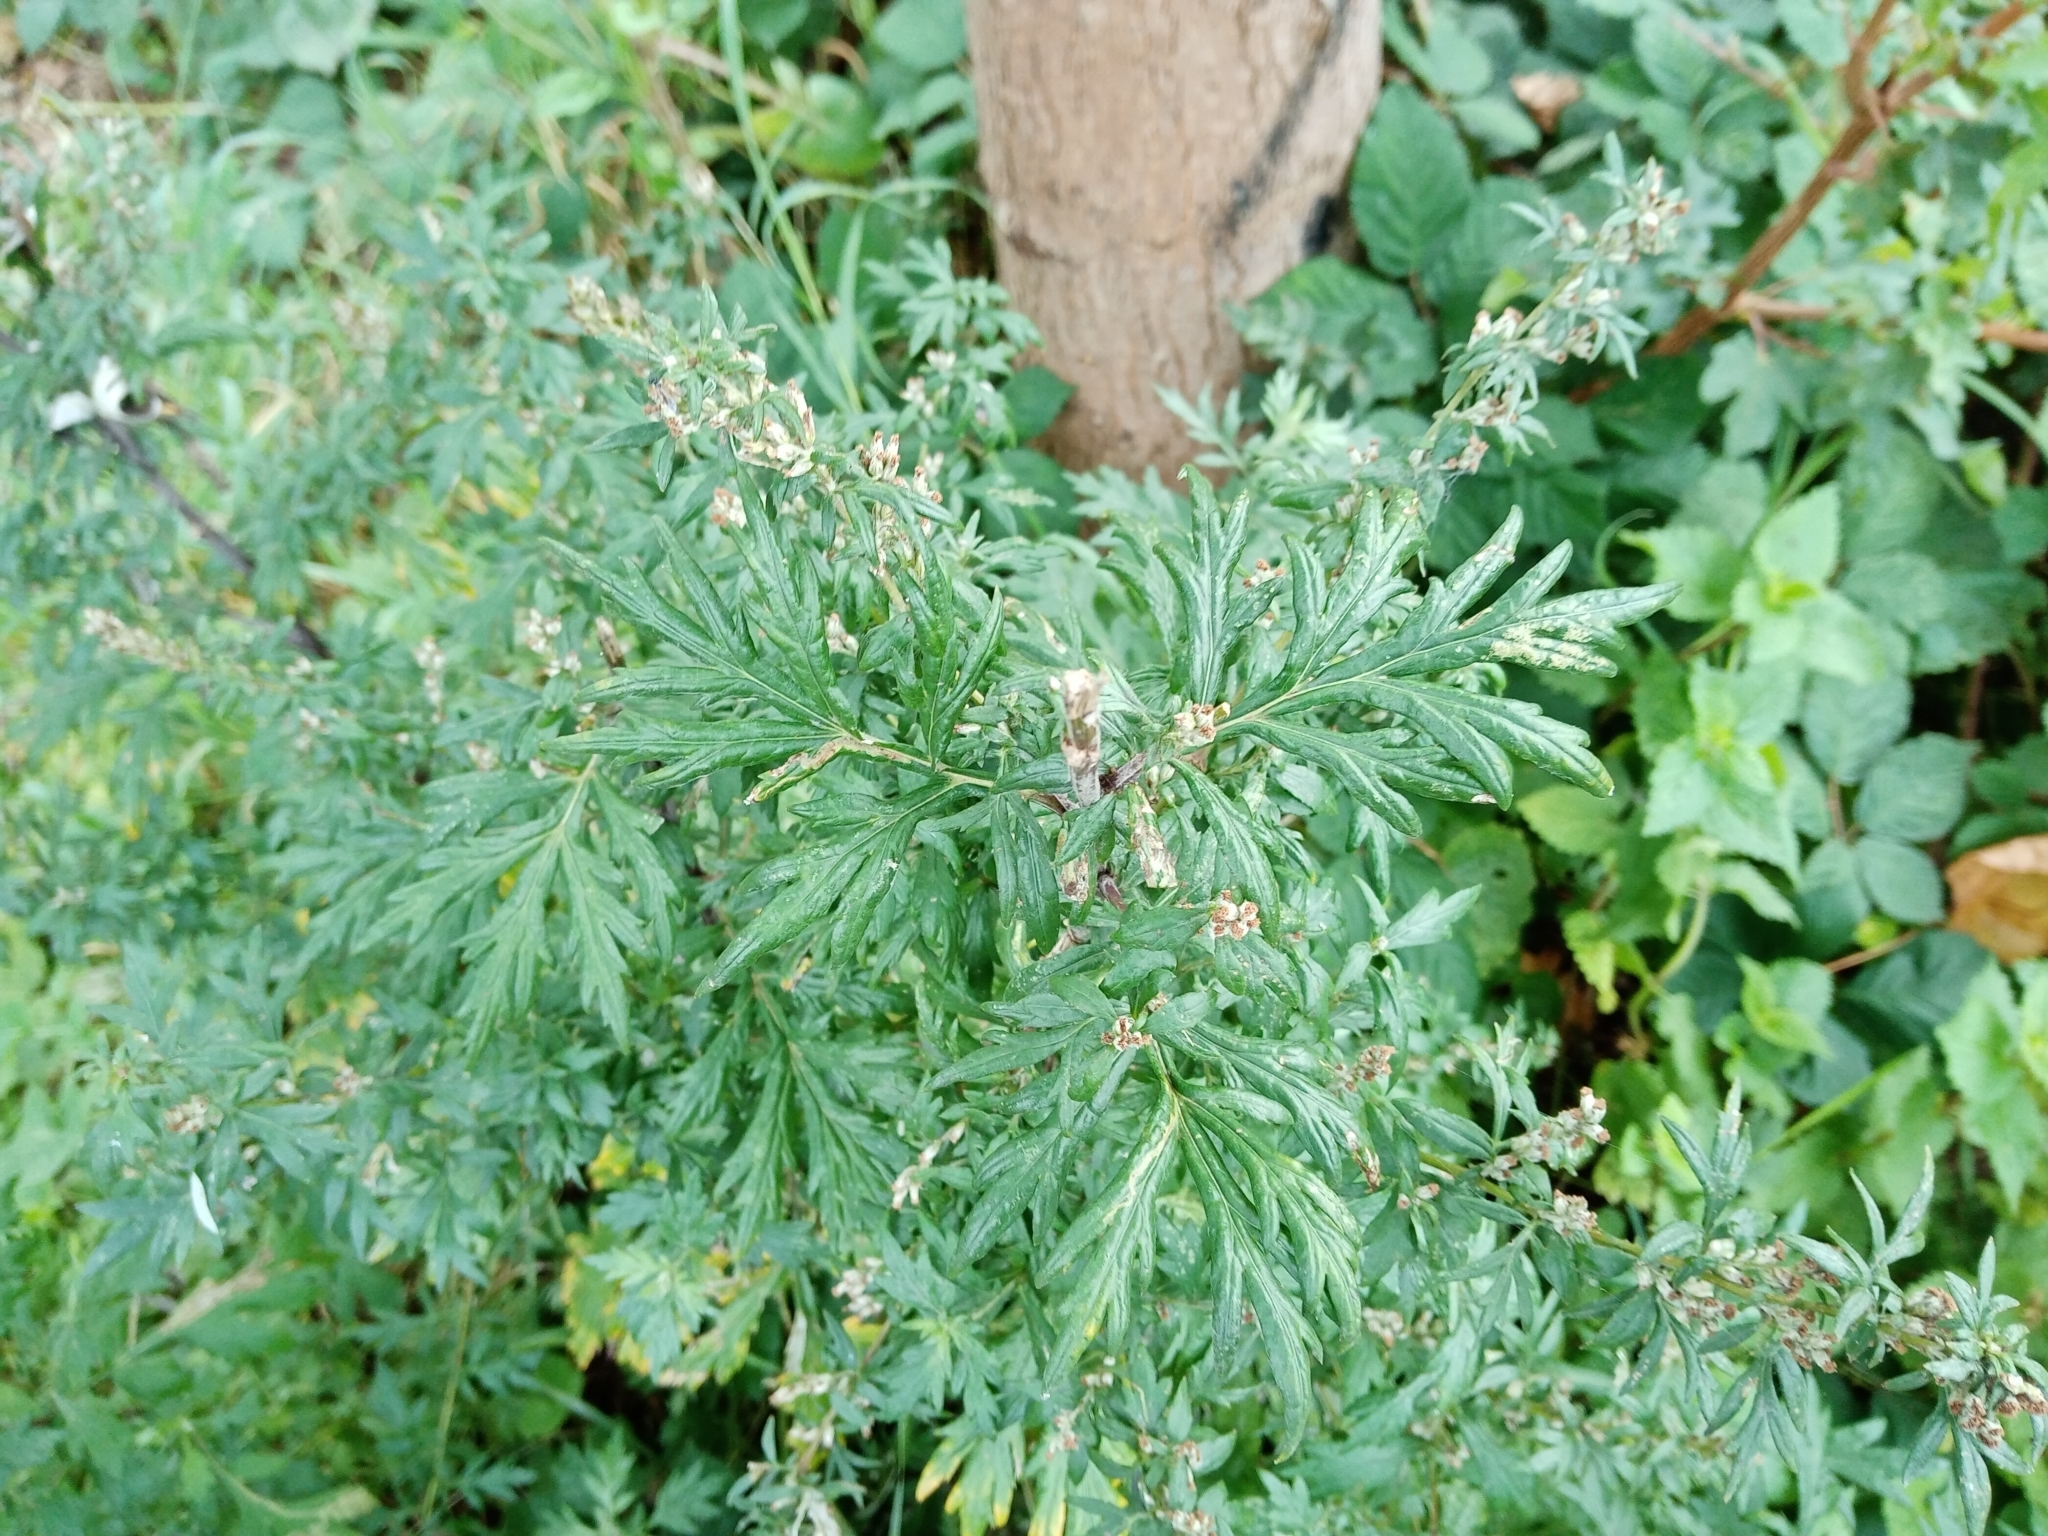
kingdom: Plantae
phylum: Tracheophyta
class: Magnoliopsida
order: Asterales
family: Asteraceae
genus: Artemisia
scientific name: Artemisia vulgaris
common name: Mugwort
